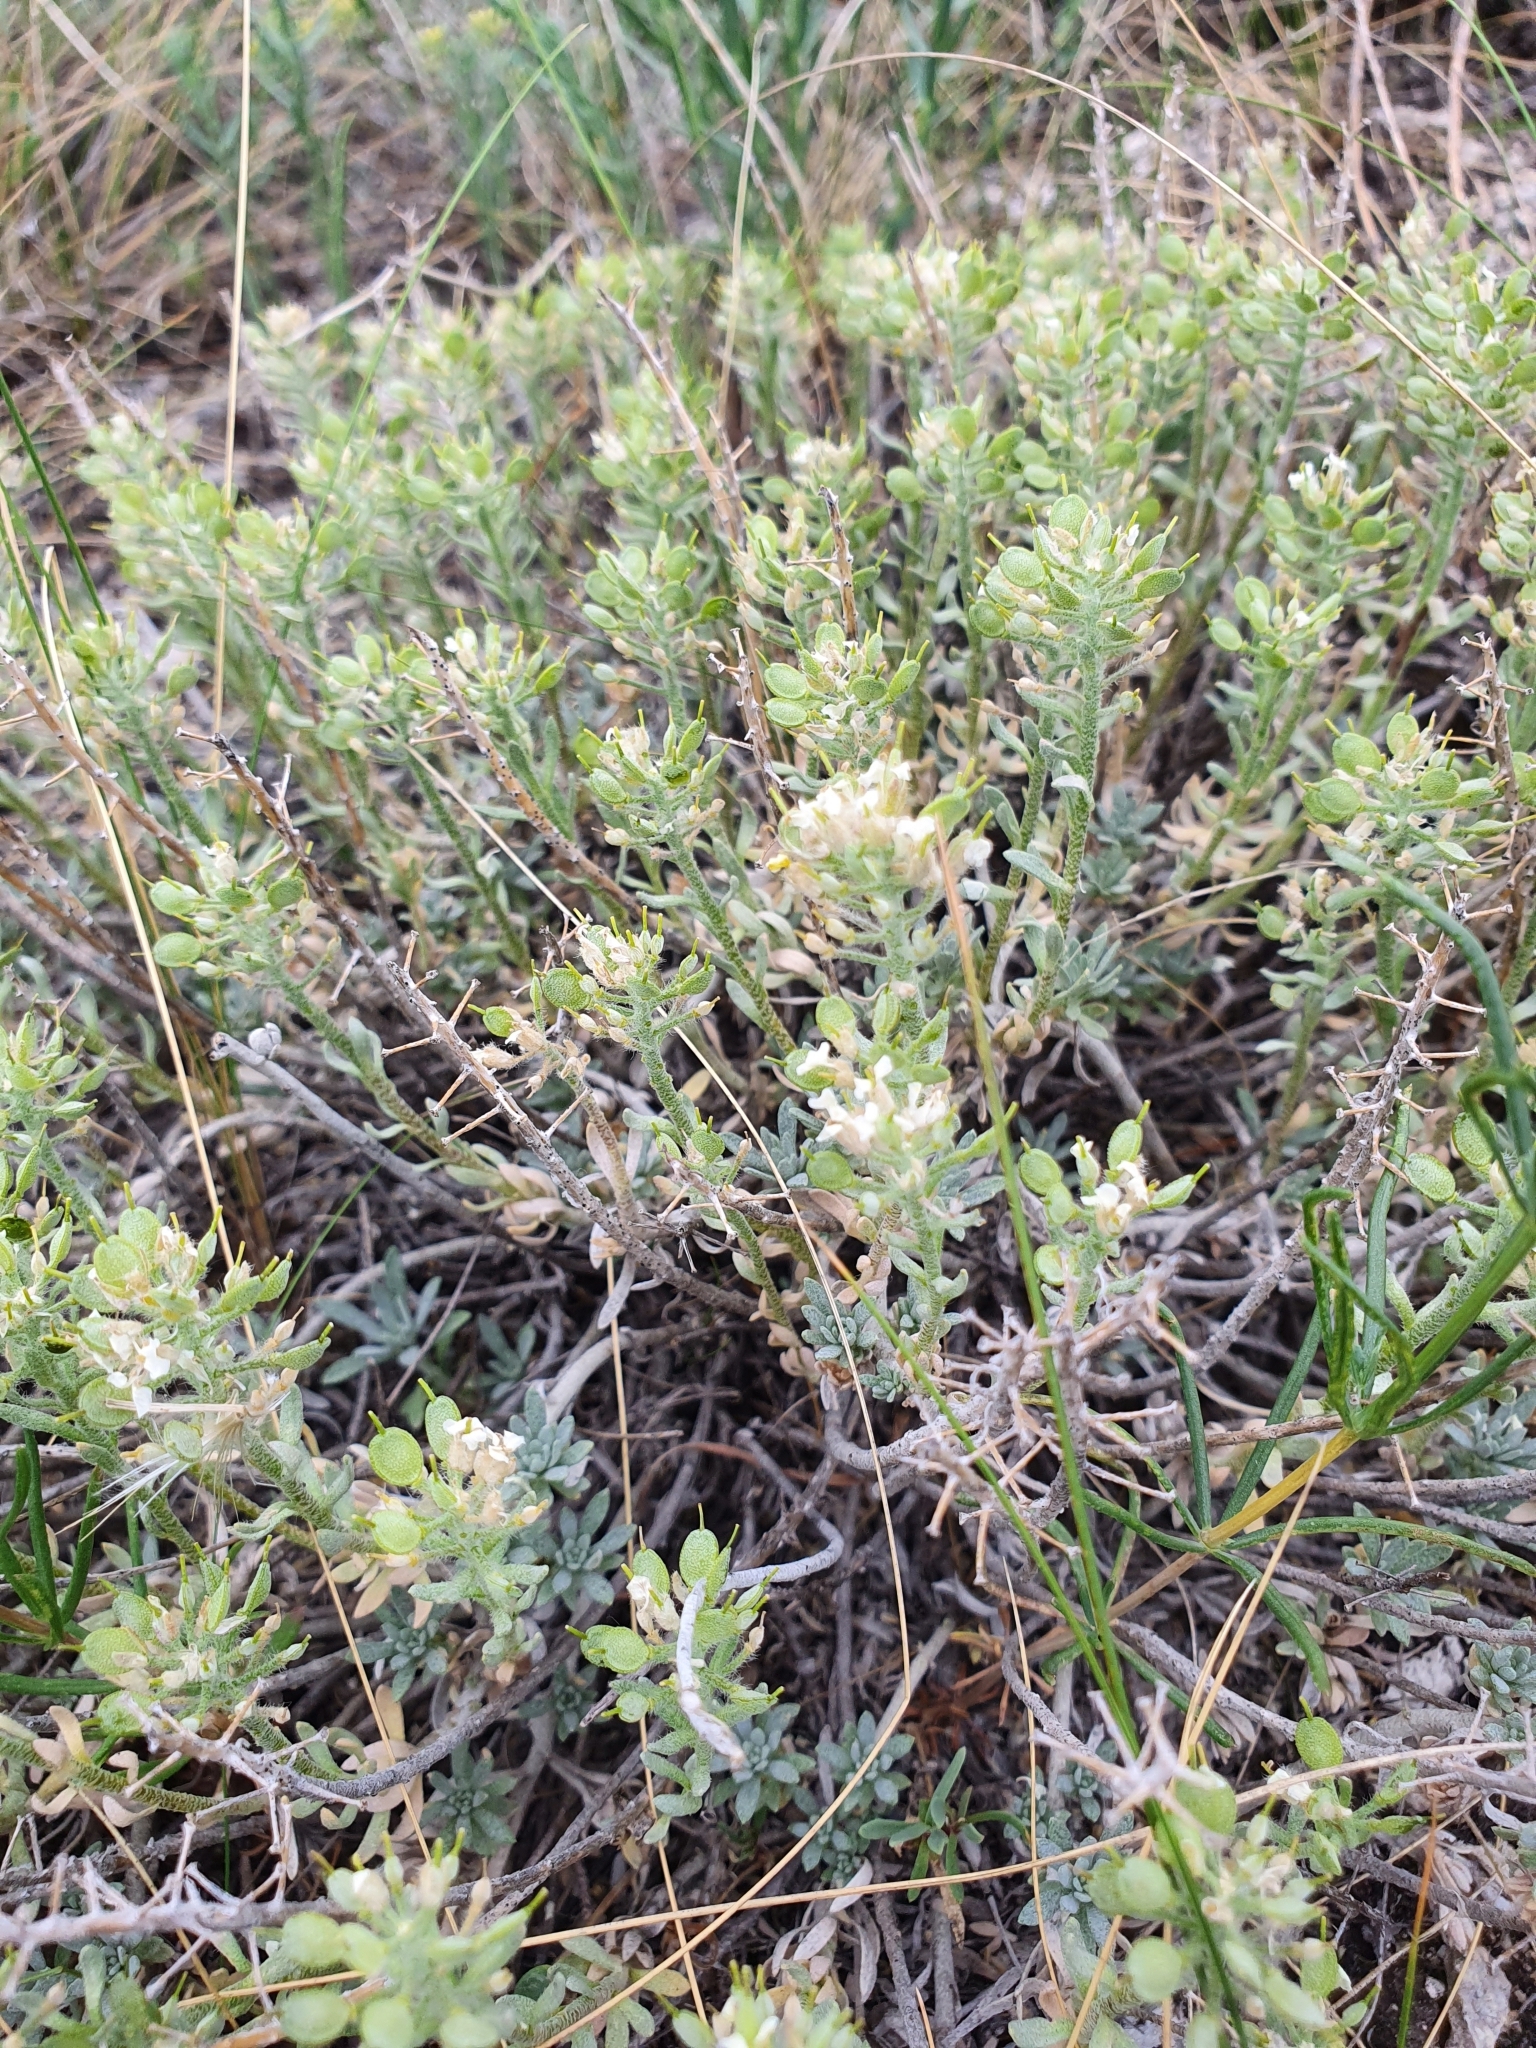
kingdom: Plantae
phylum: Tracheophyta
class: Magnoliopsida
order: Brassicales
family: Brassicaceae
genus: Alyssum
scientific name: Alyssum lenense
